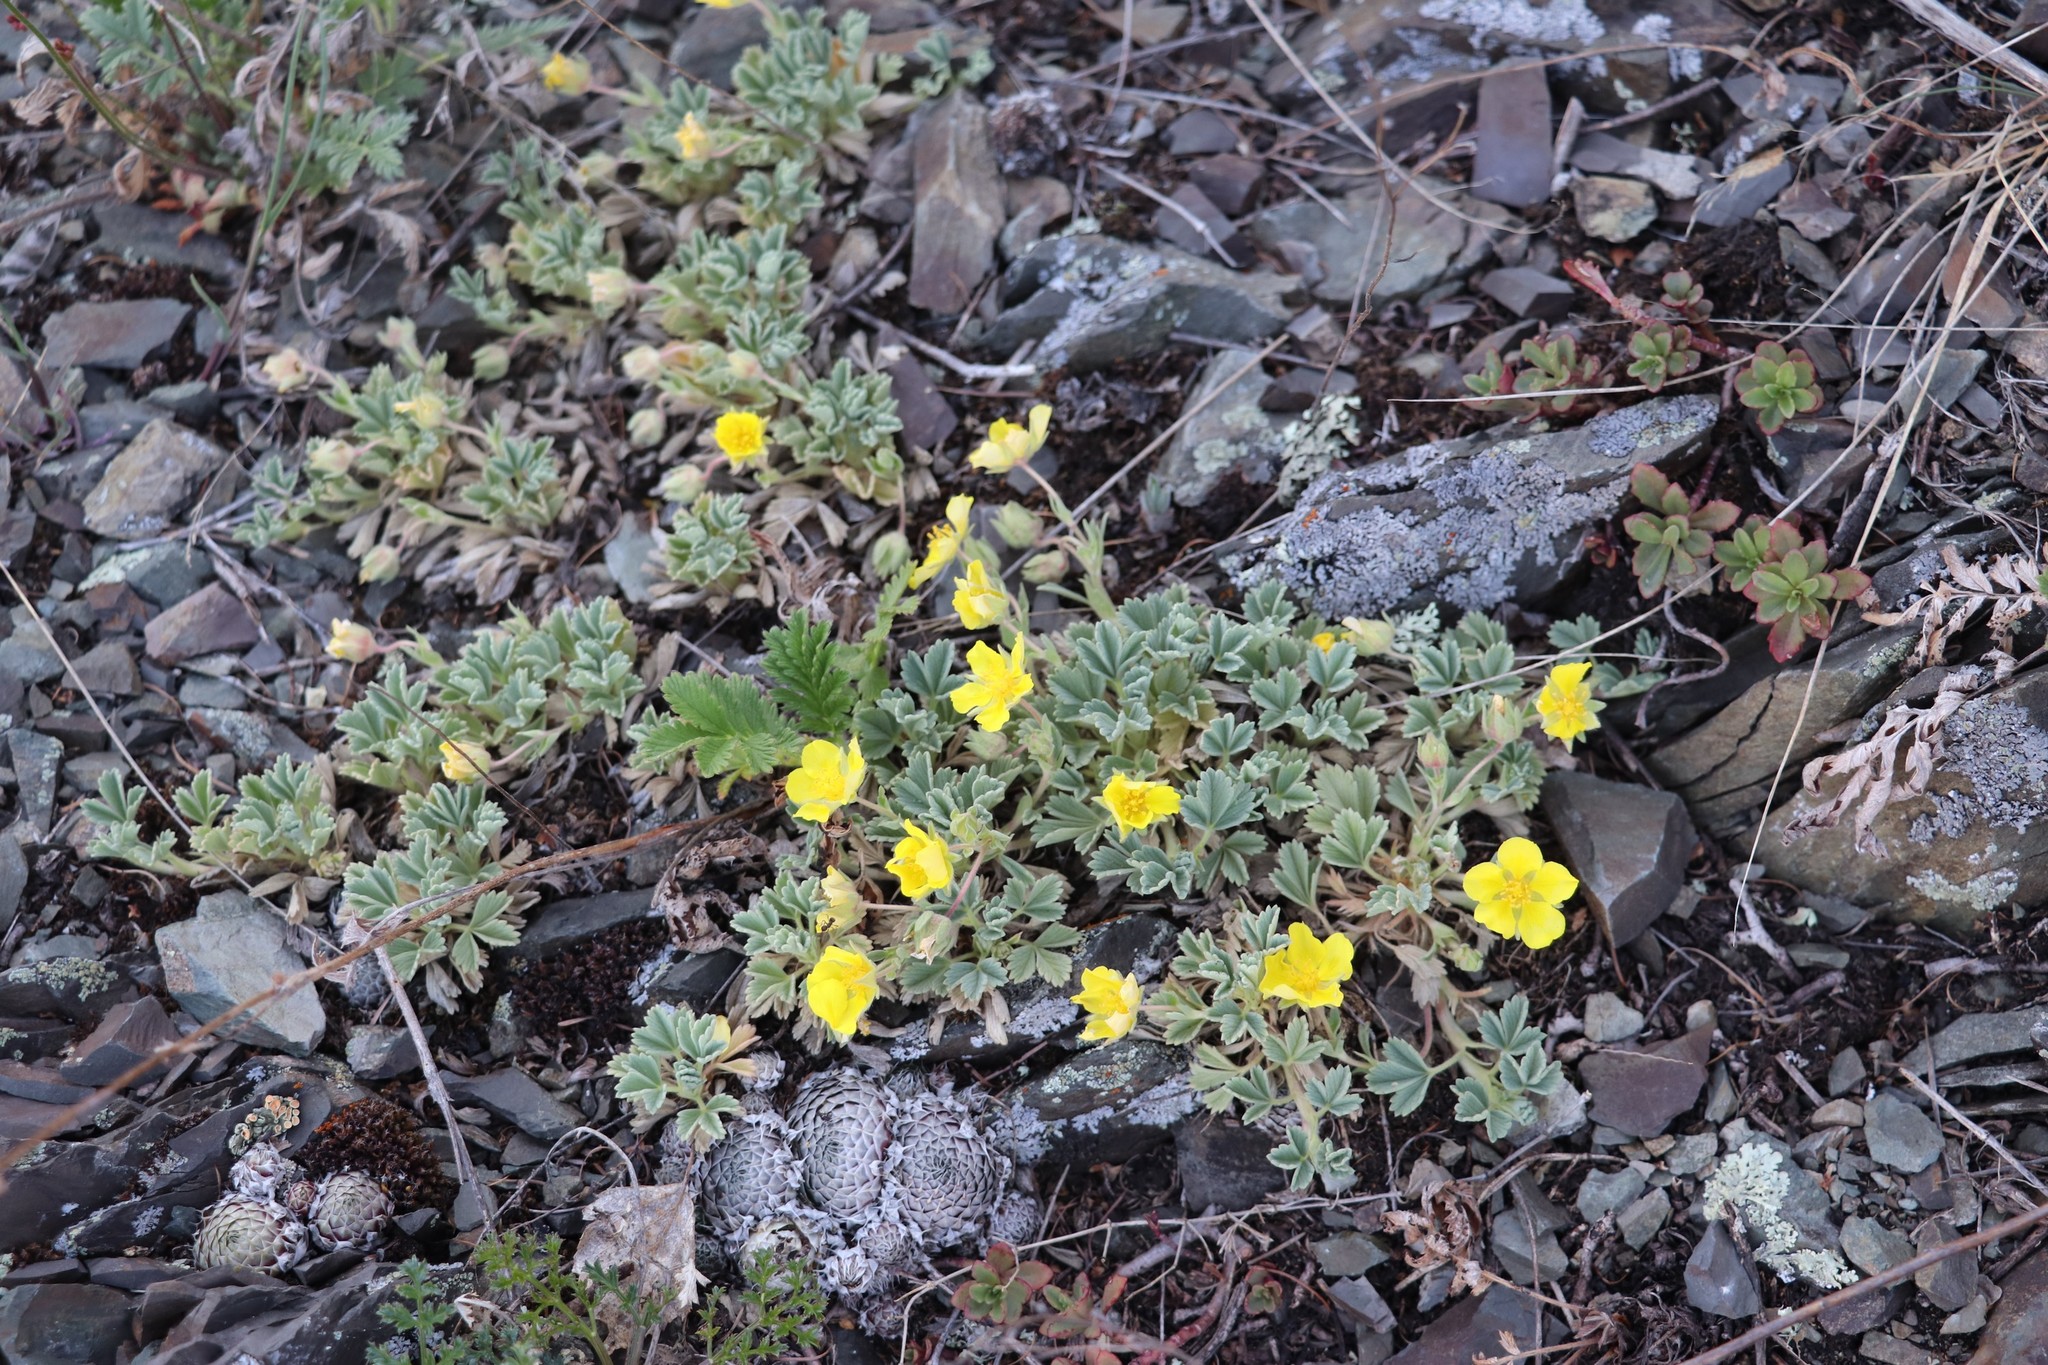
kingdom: Plantae
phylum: Tracheophyta
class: Magnoliopsida
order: Rosales
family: Rosaceae
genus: Potentilla
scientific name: Potentilla acaulis
